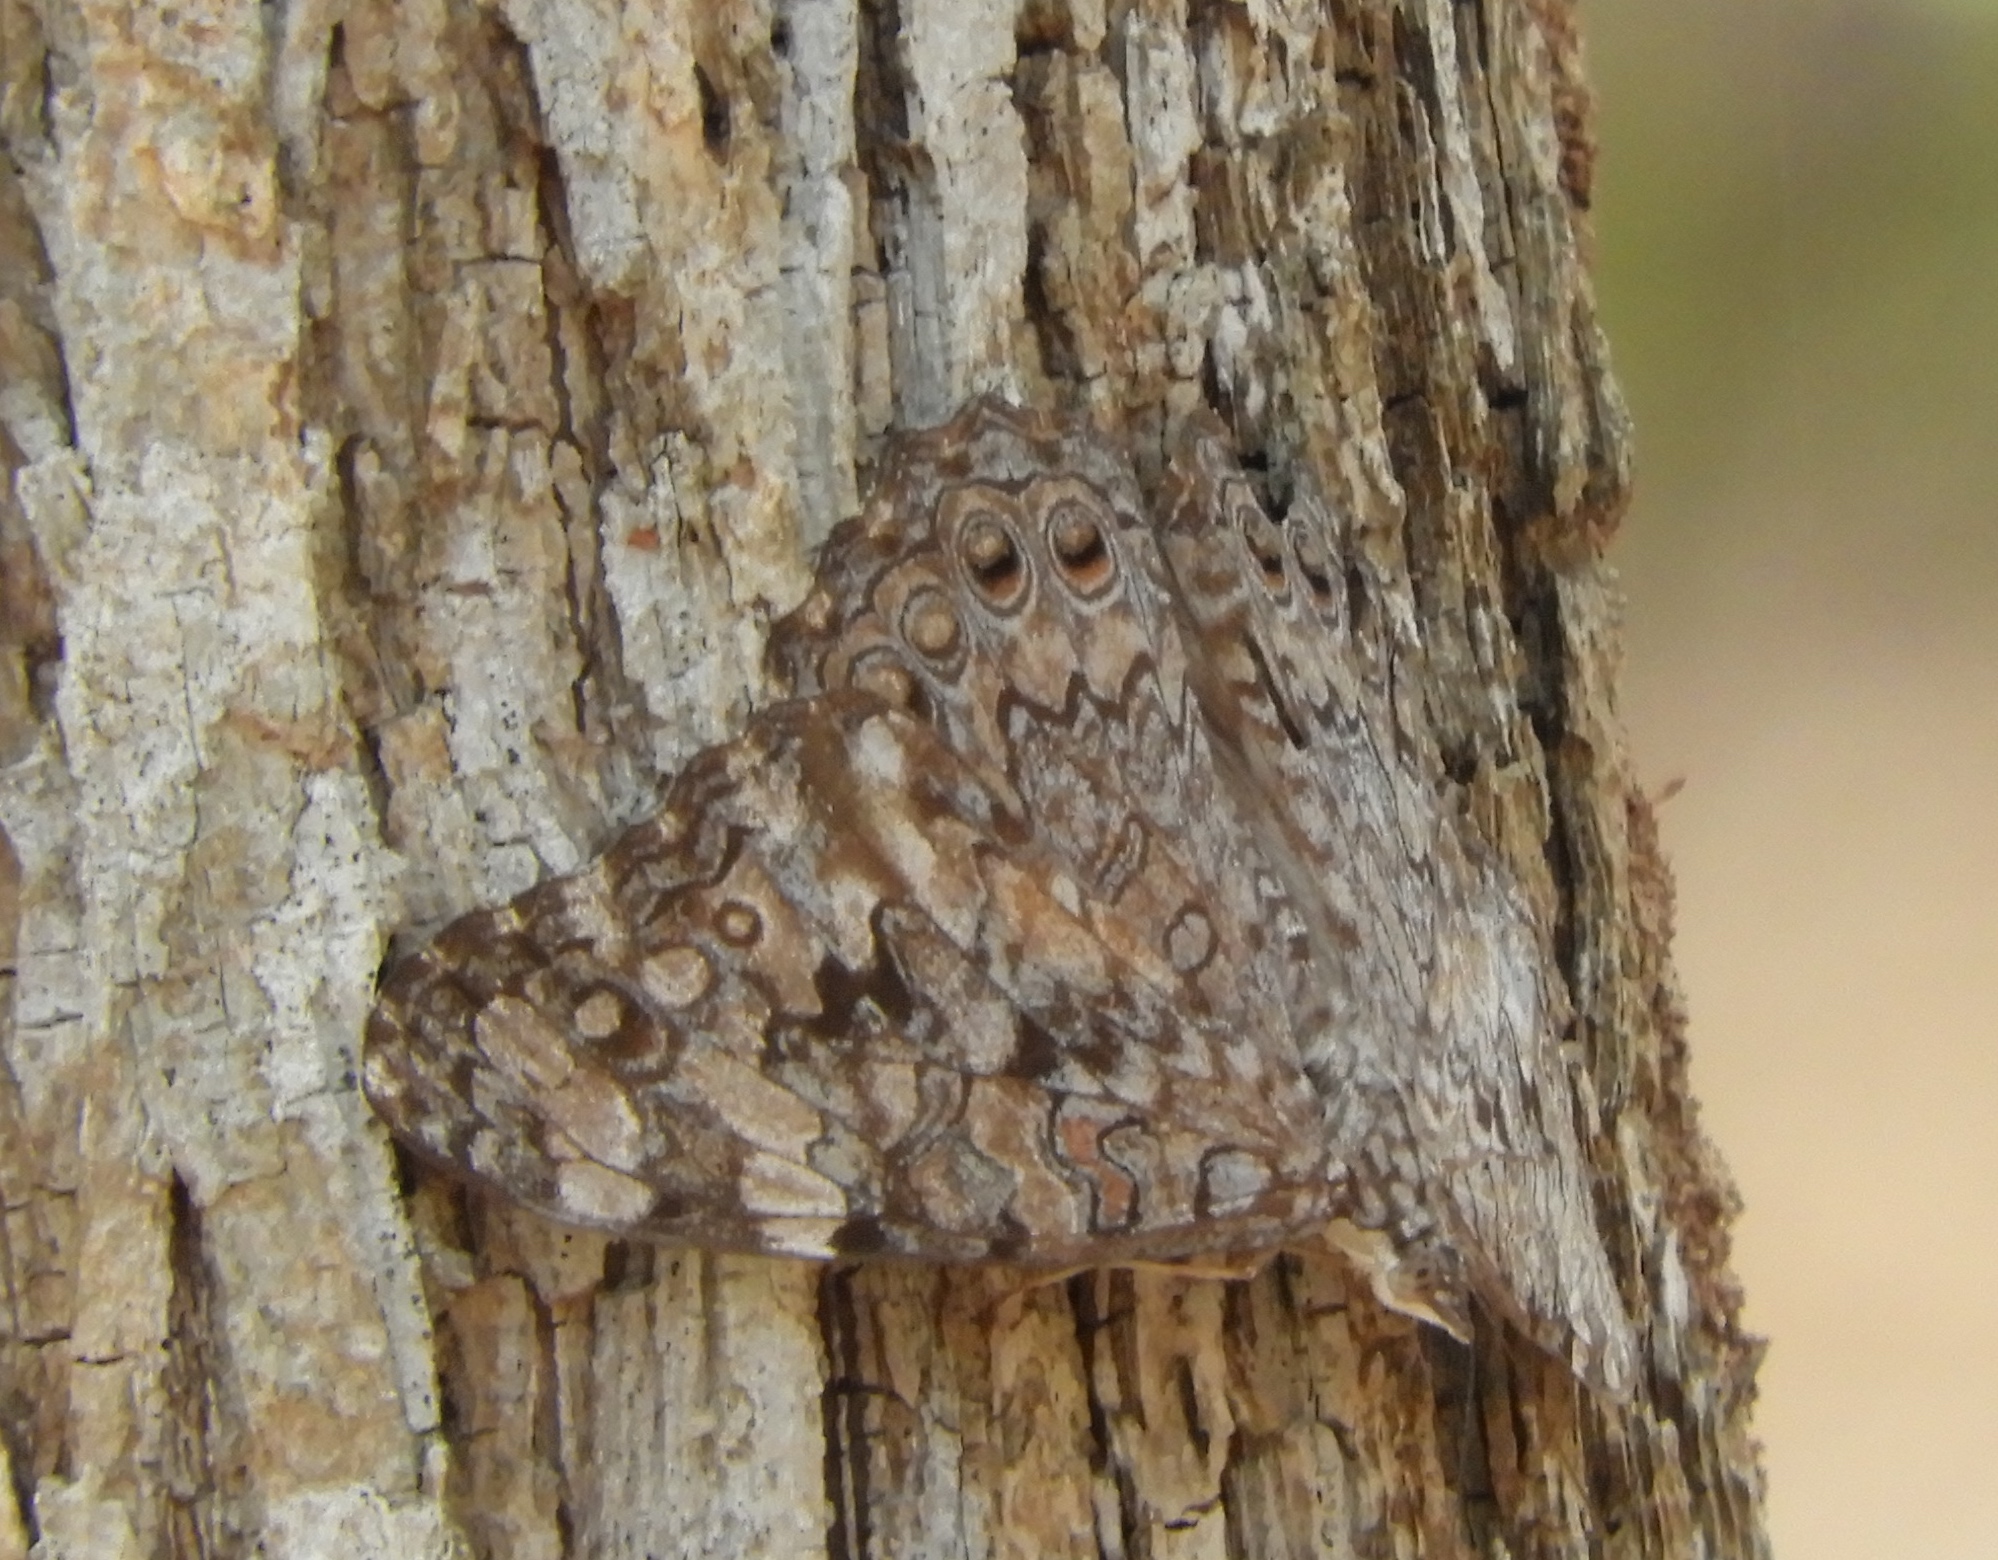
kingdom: Animalia
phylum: Arthropoda
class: Insecta
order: Lepidoptera
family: Nymphalidae
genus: Hamadryas
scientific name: Hamadryas februa
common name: Gray cracker
